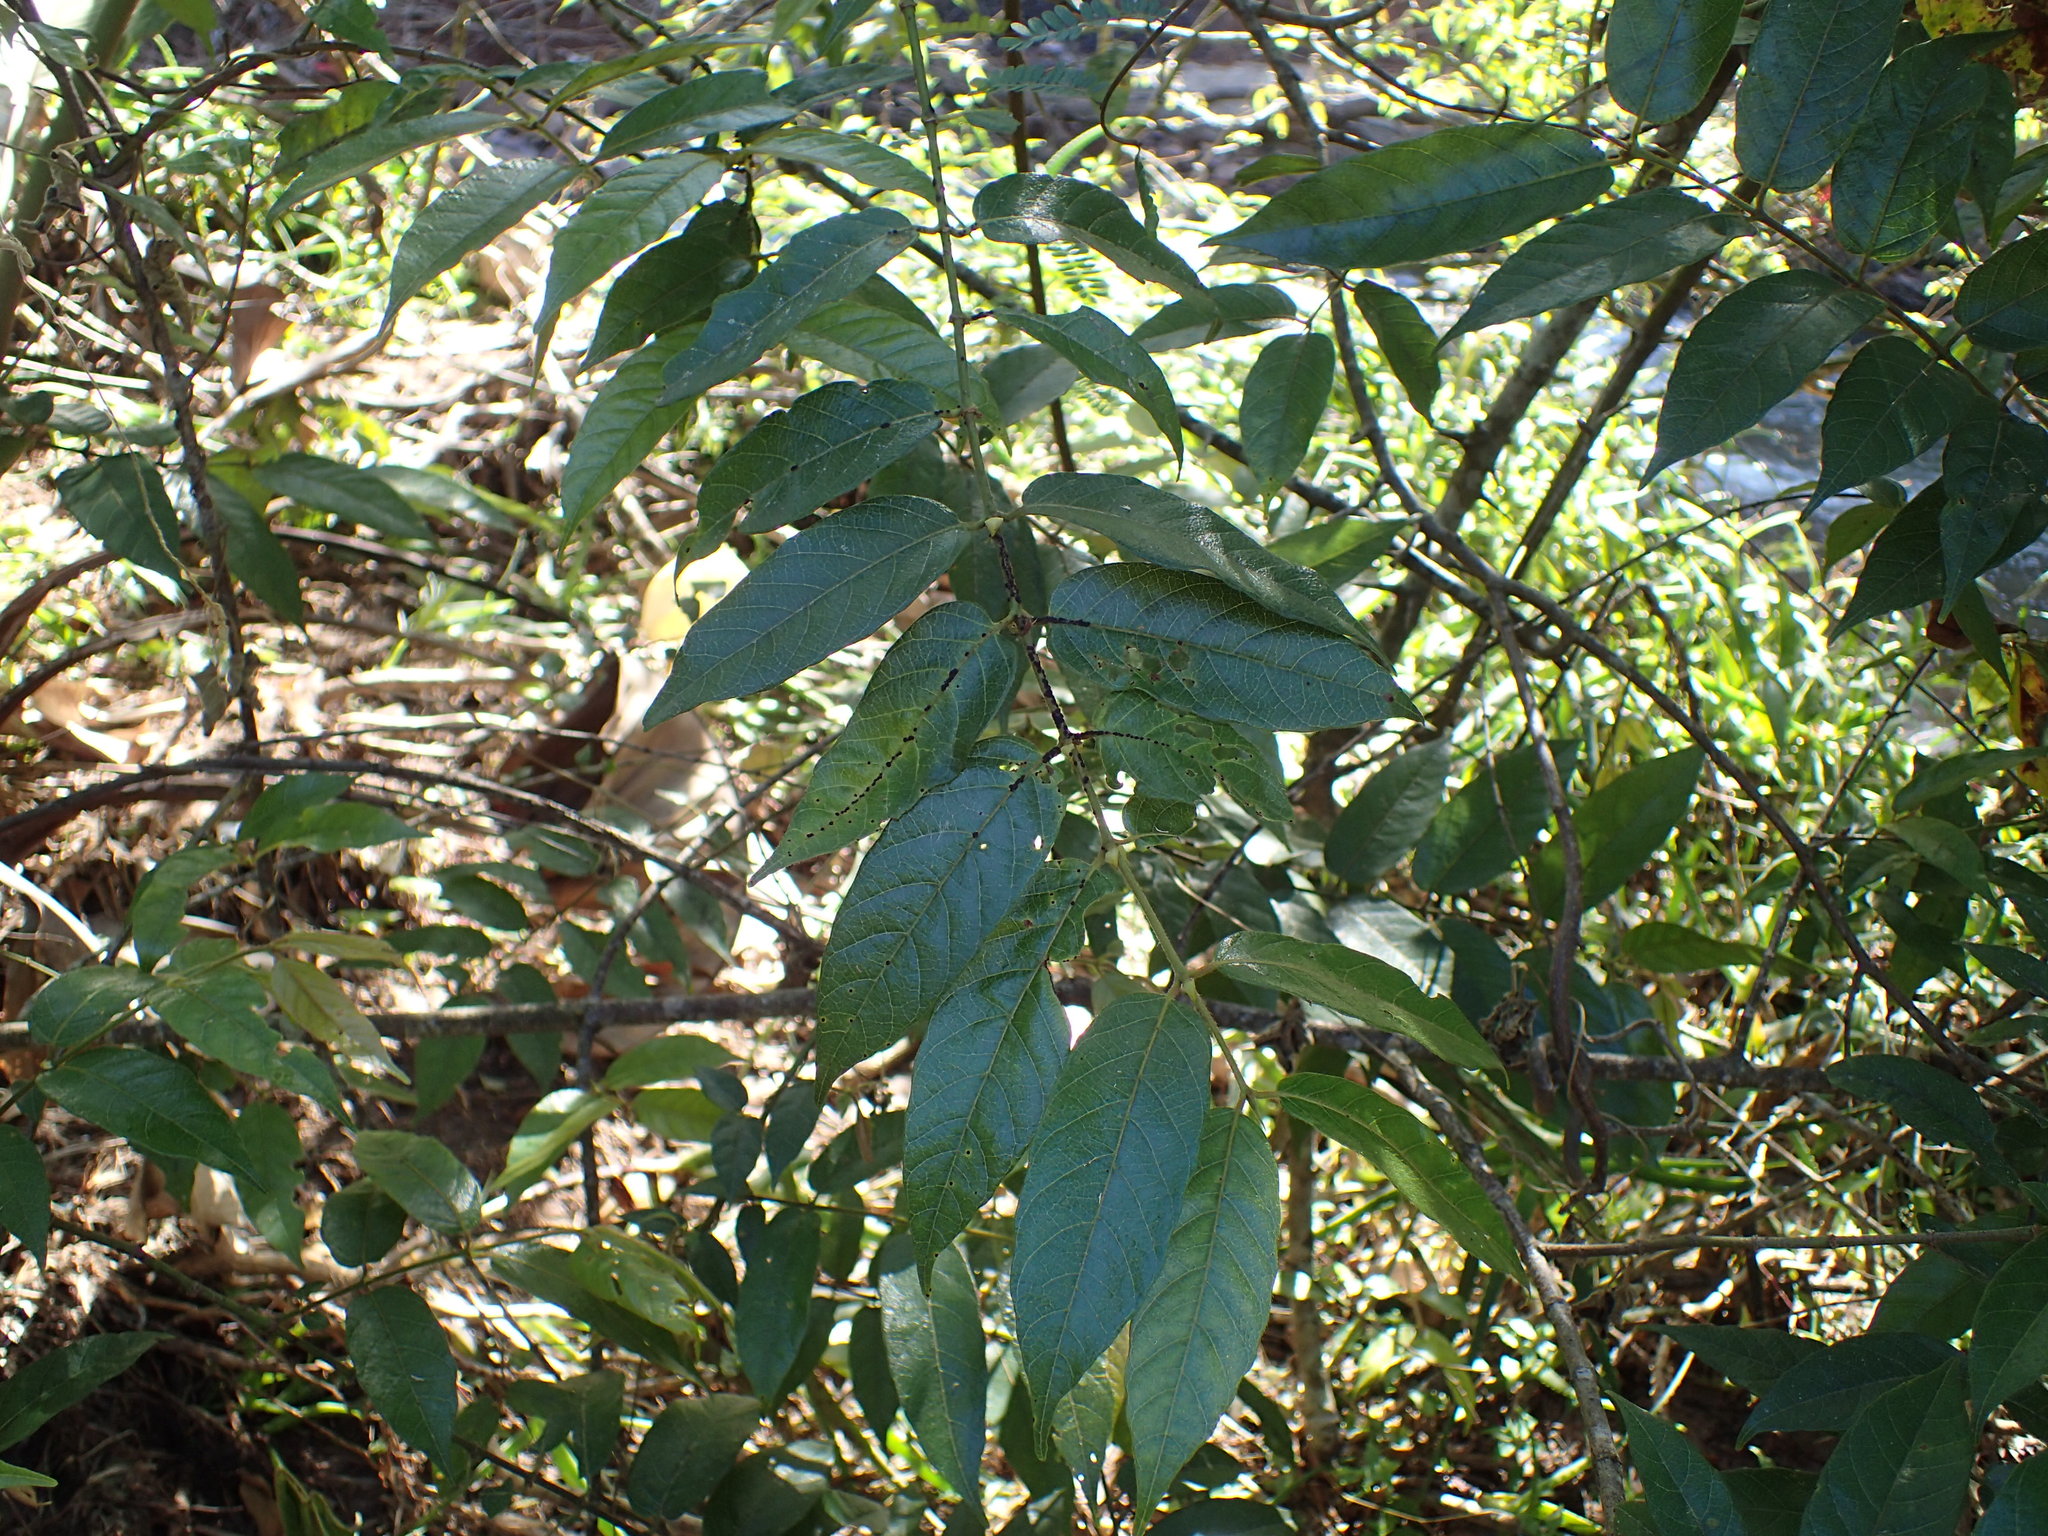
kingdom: Plantae
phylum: Tracheophyta
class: Magnoliopsida
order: Gentianales
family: Rubiaceae
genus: Keetia
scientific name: Keetia gueinzii
